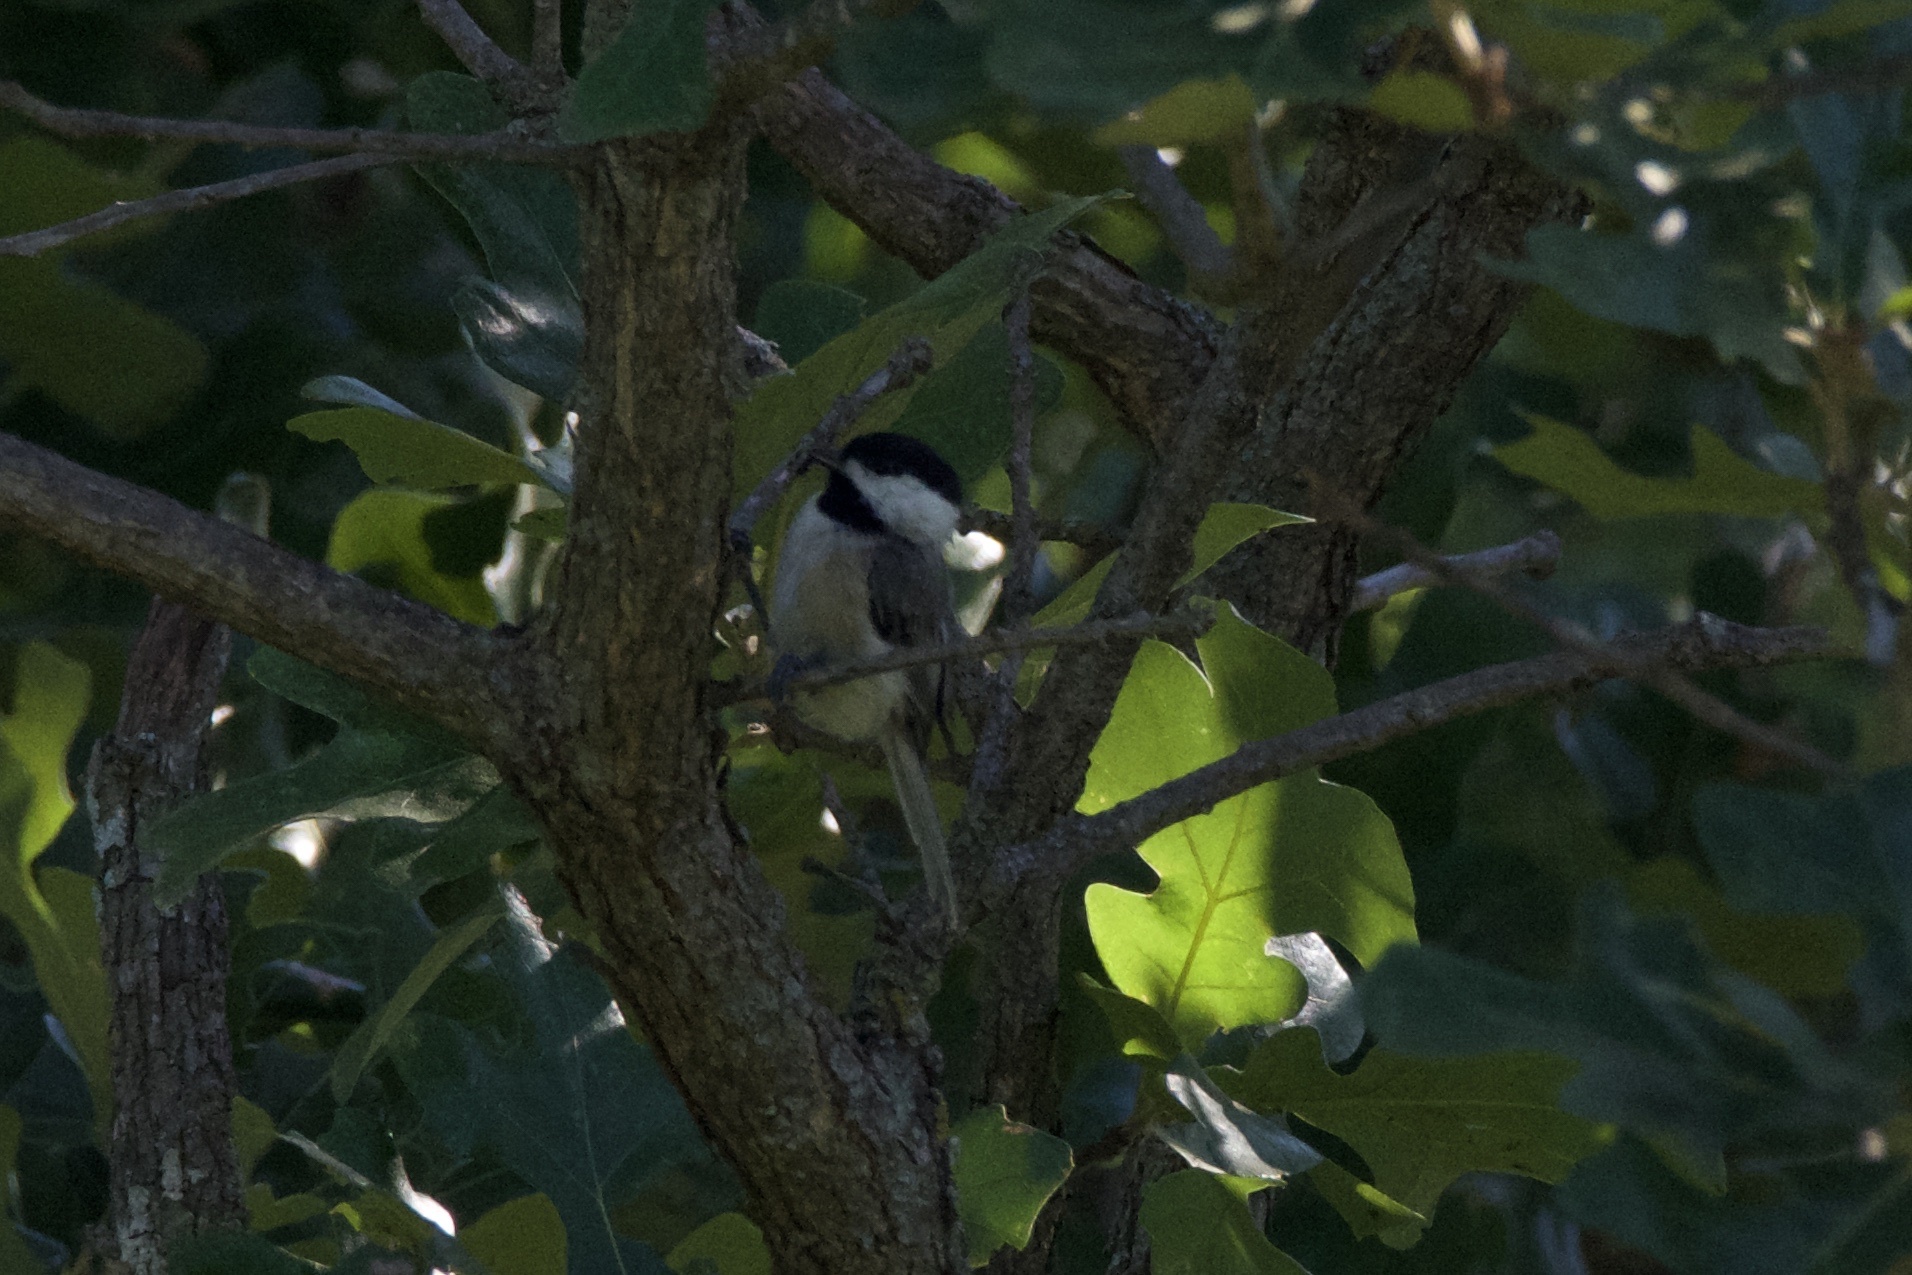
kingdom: Animalia
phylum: Chordata
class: Aves
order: Passeriformes
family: Paridae
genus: Poecile
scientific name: Poecile carolinensis
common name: Carolina chickadee
